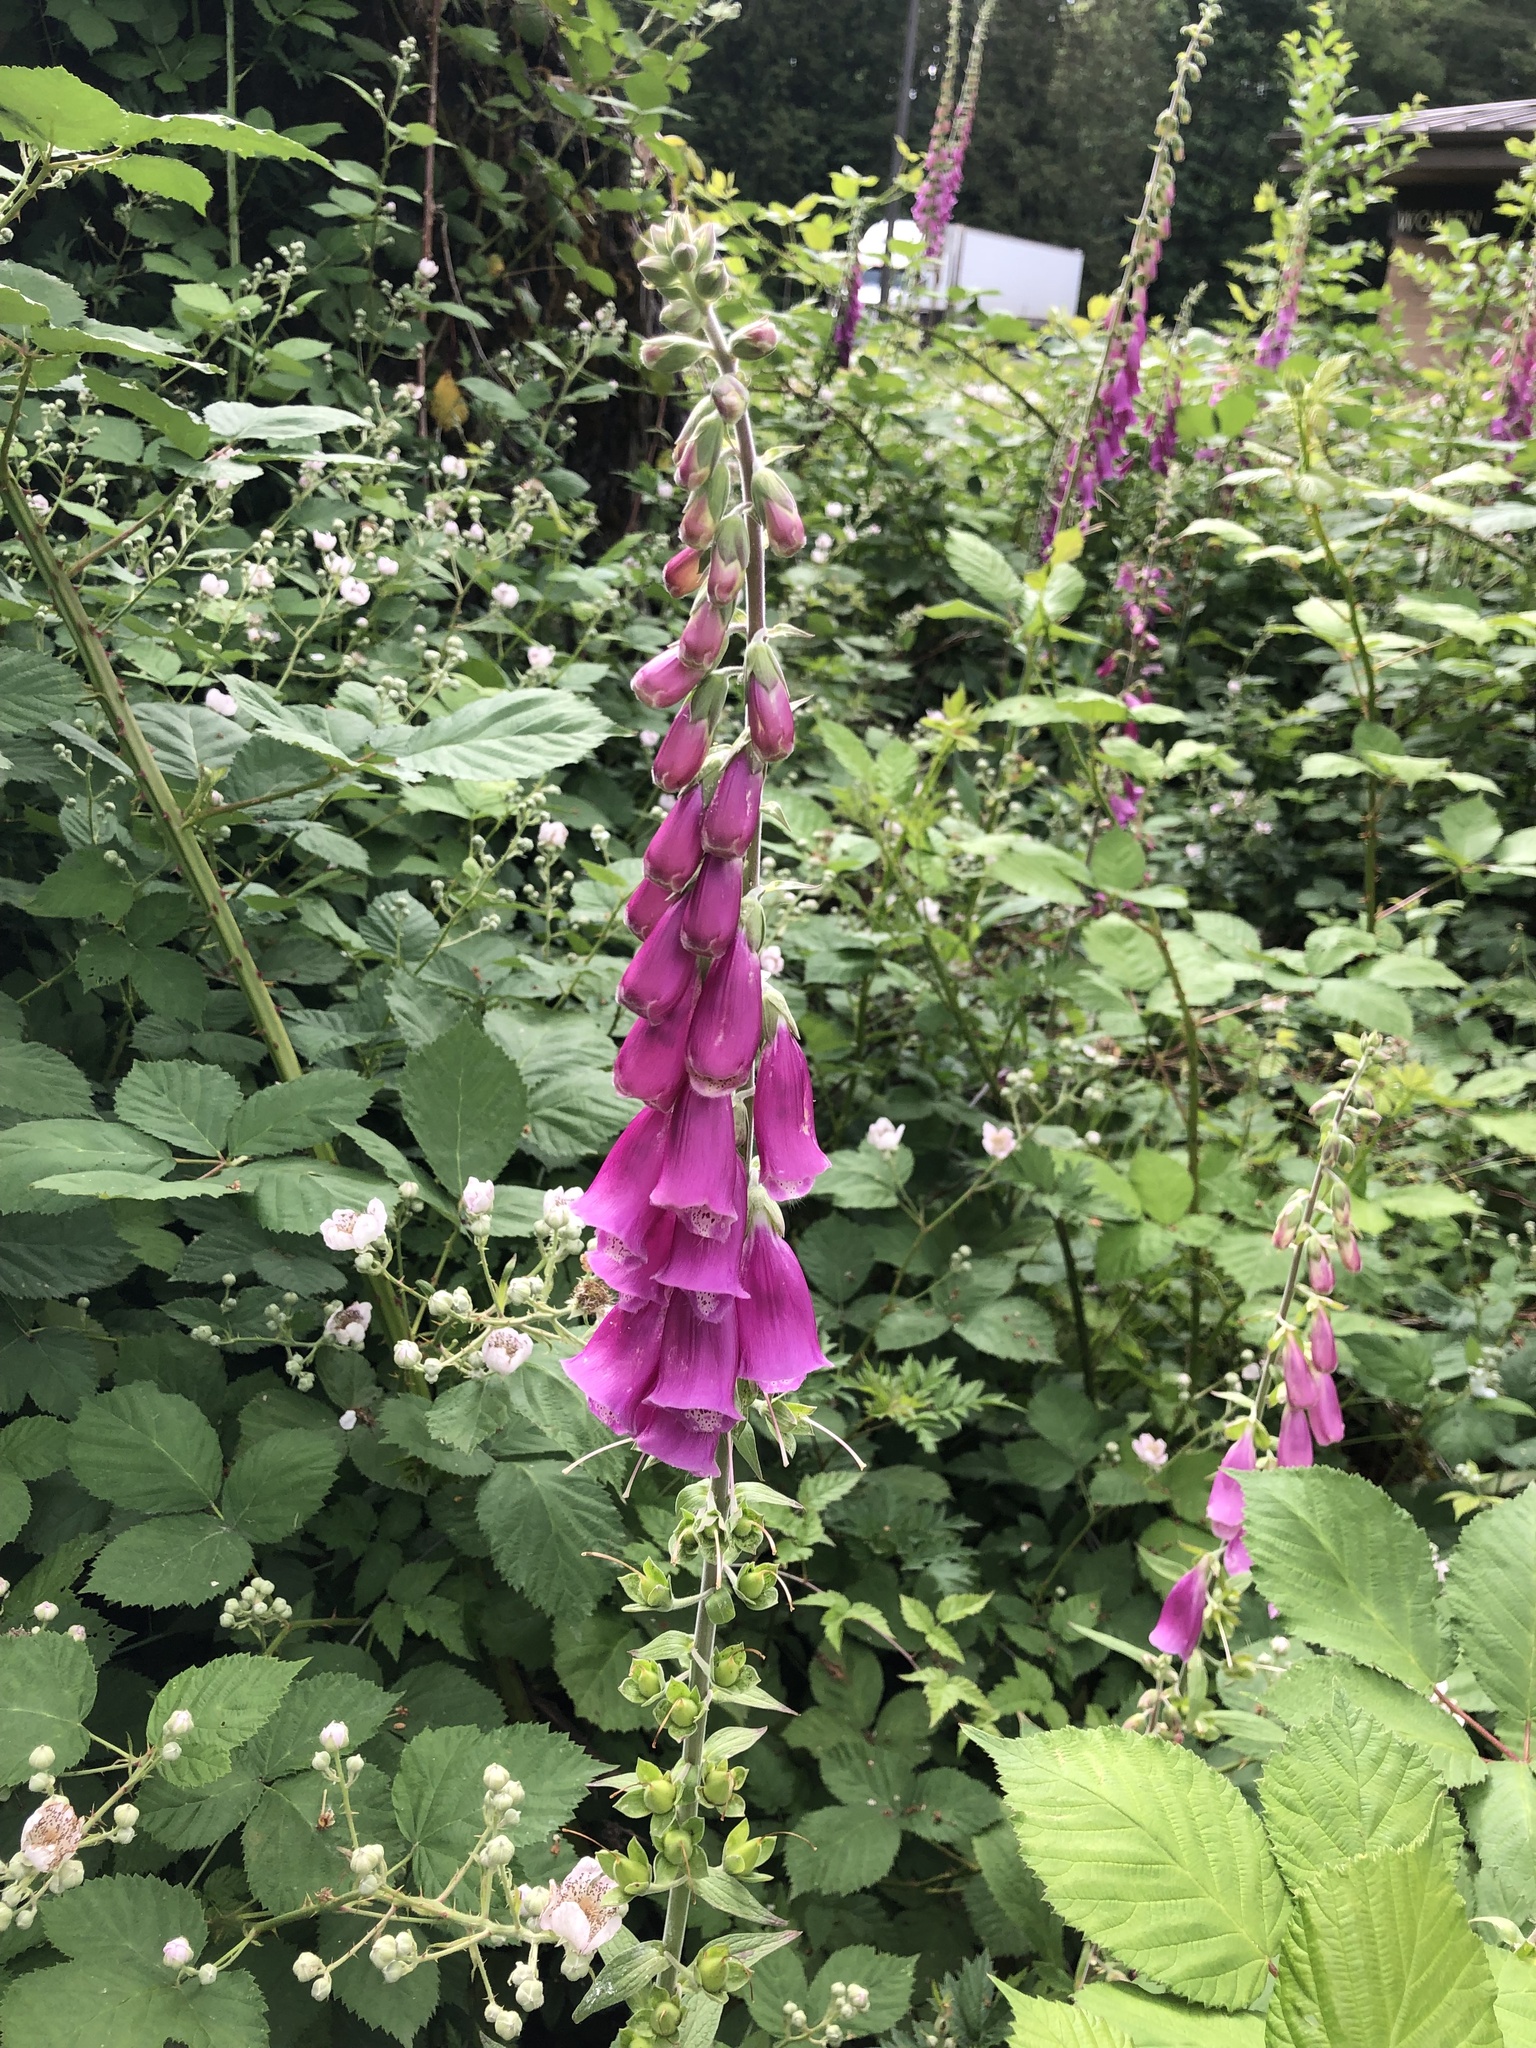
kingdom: Plantae
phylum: Tracheophyta
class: Magnoliopsida
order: Lamiales
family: Plantaginaceae
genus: Digitalis
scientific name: Digitalis purpurea
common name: Foxglove
